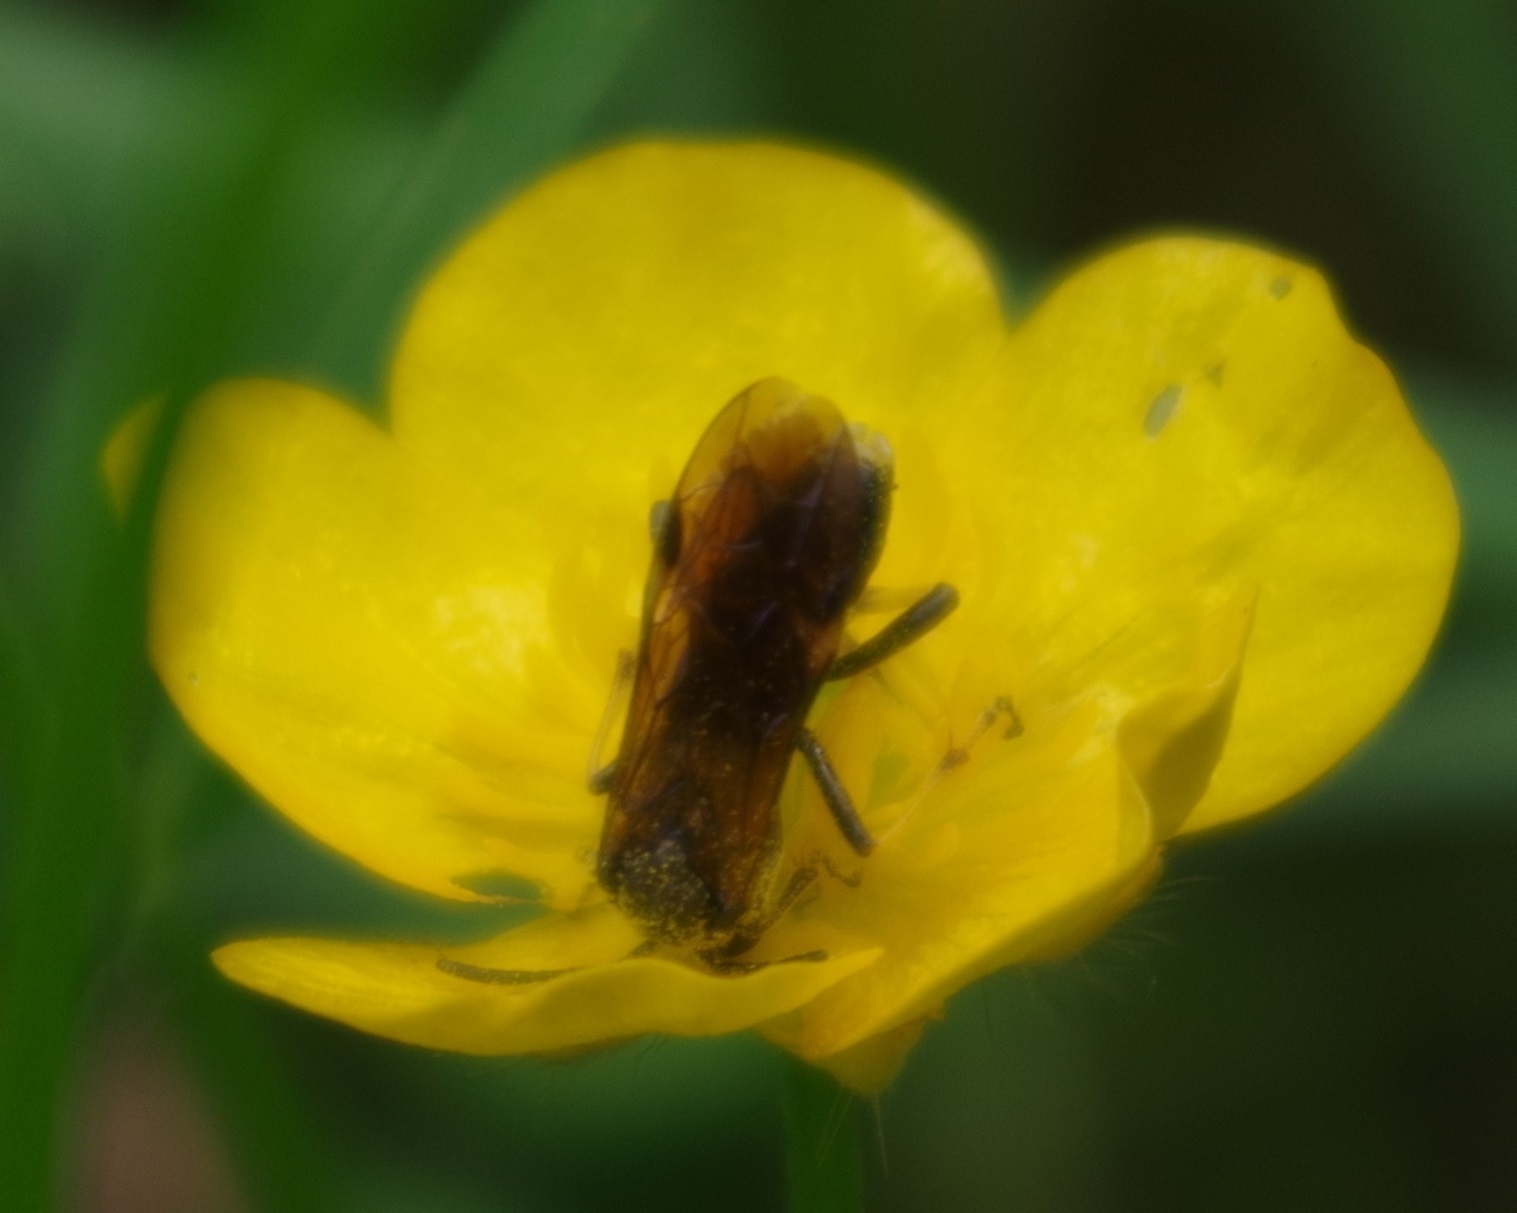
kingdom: Animalia
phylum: Arthropoda
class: Insecta
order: Hymenoptera
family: Tenthredinidae
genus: Tenthredo
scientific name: Tenthredo koehleri
